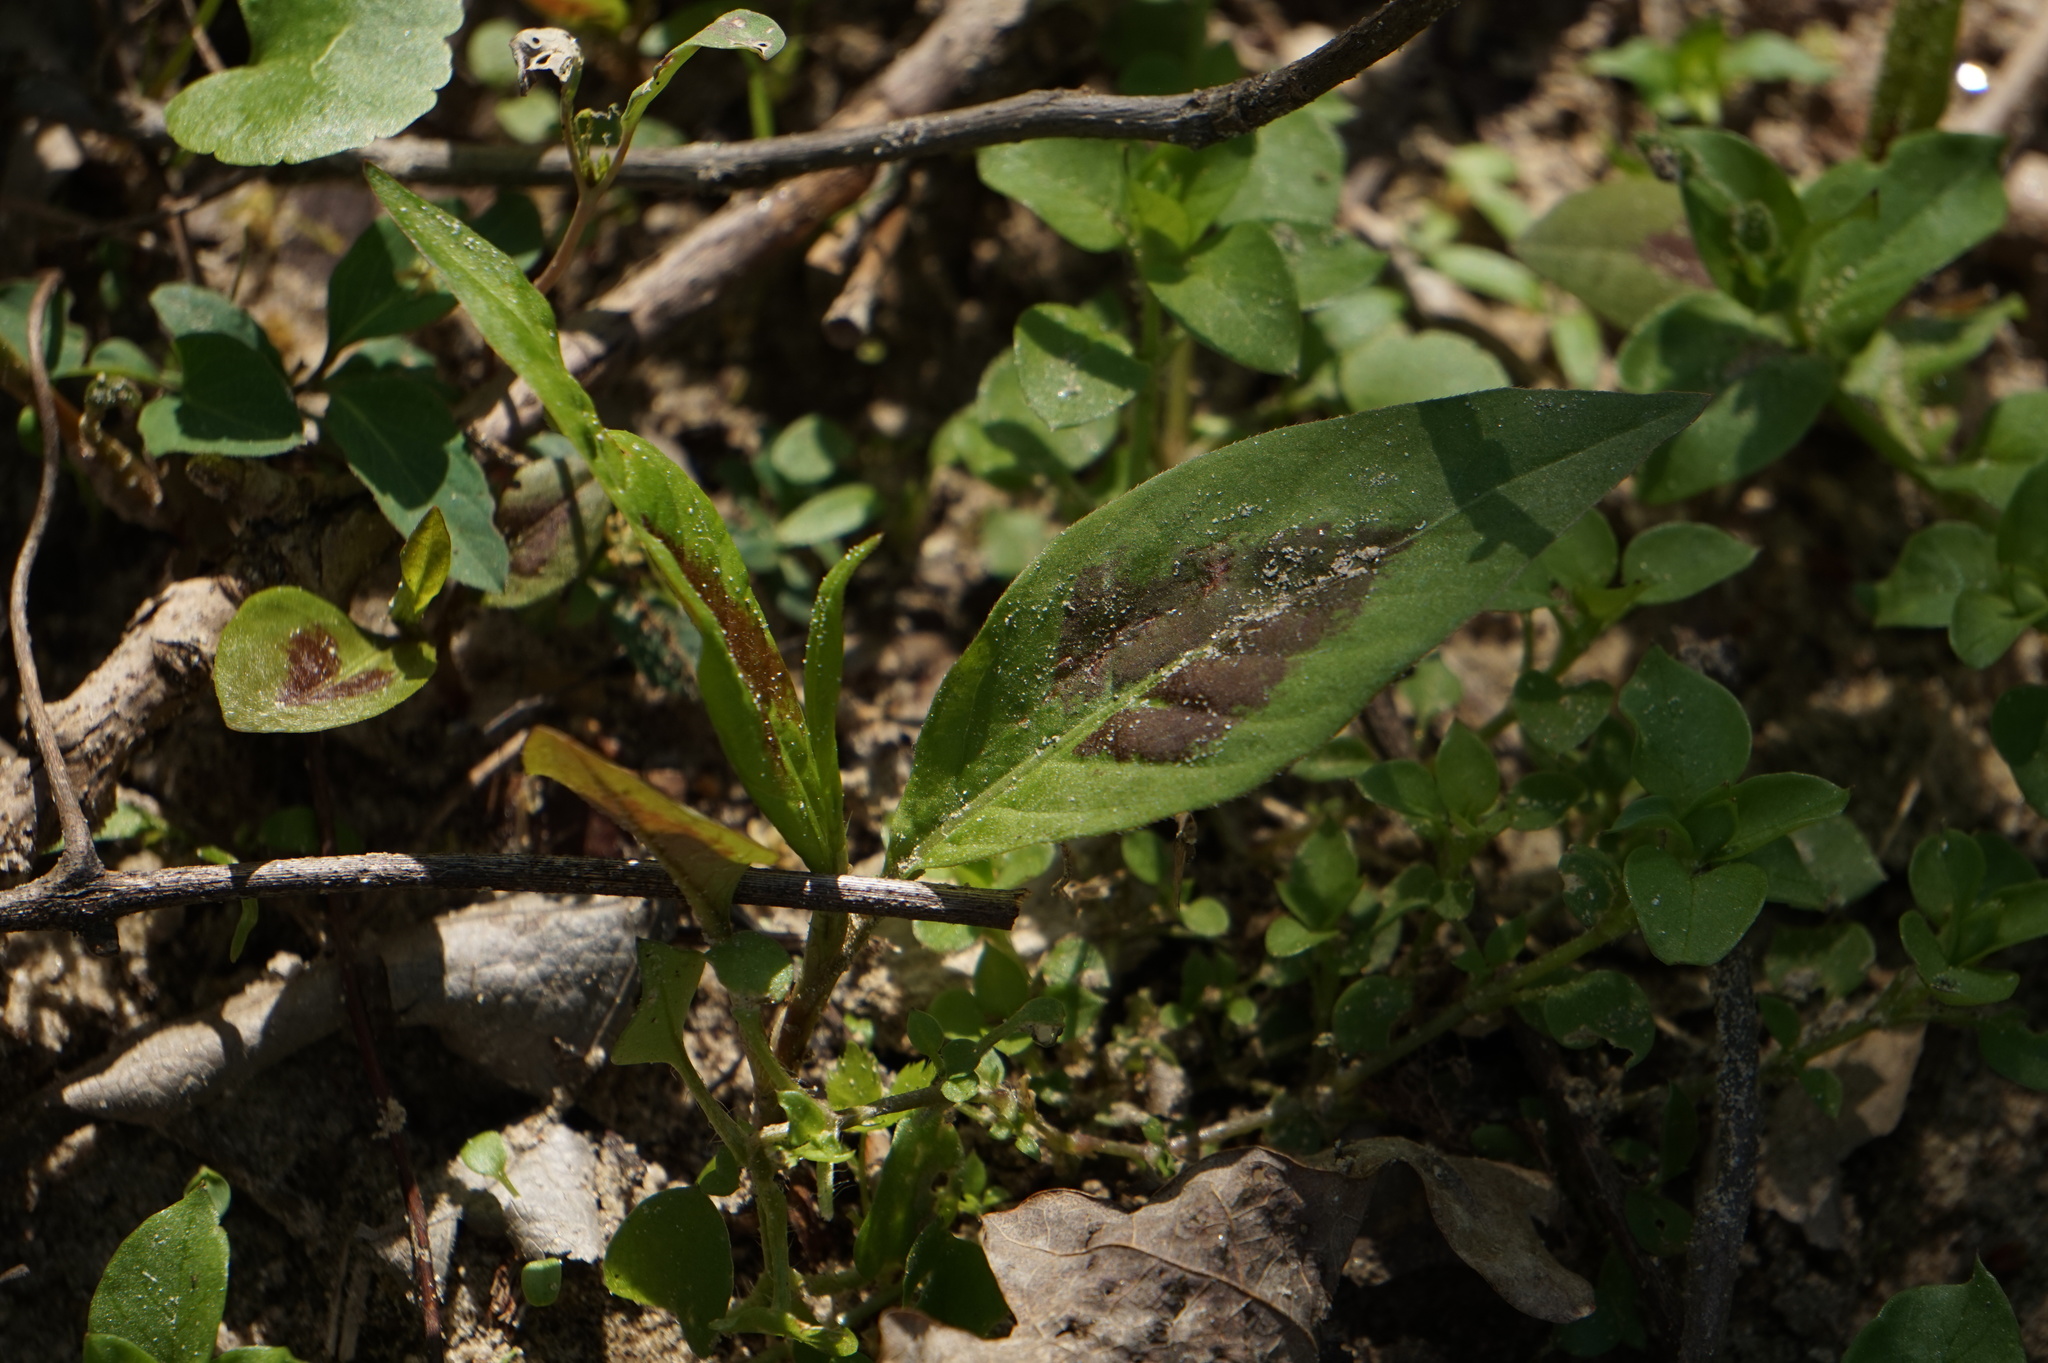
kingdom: Plantae
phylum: Tracheophyta
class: Magnoliopsida
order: Caryophyllales
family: Polygonaceae
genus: Persicaria
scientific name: Persicaria virginiana
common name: Jumpseed
